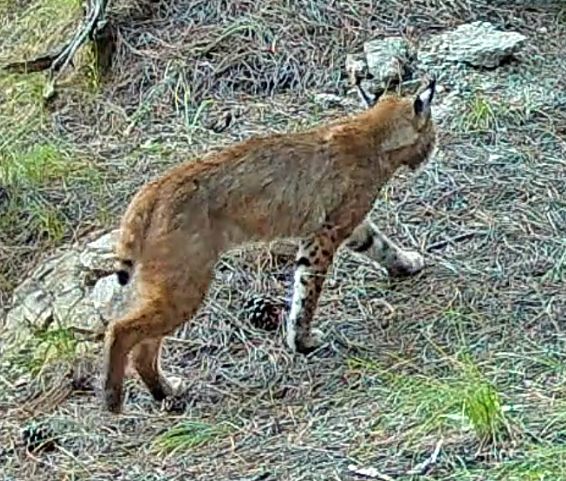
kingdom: Animalia
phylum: Chordata
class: Mammalia
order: Carnivora
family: Felidae
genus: Lynx
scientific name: Lynx rufus
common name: Bobcat
